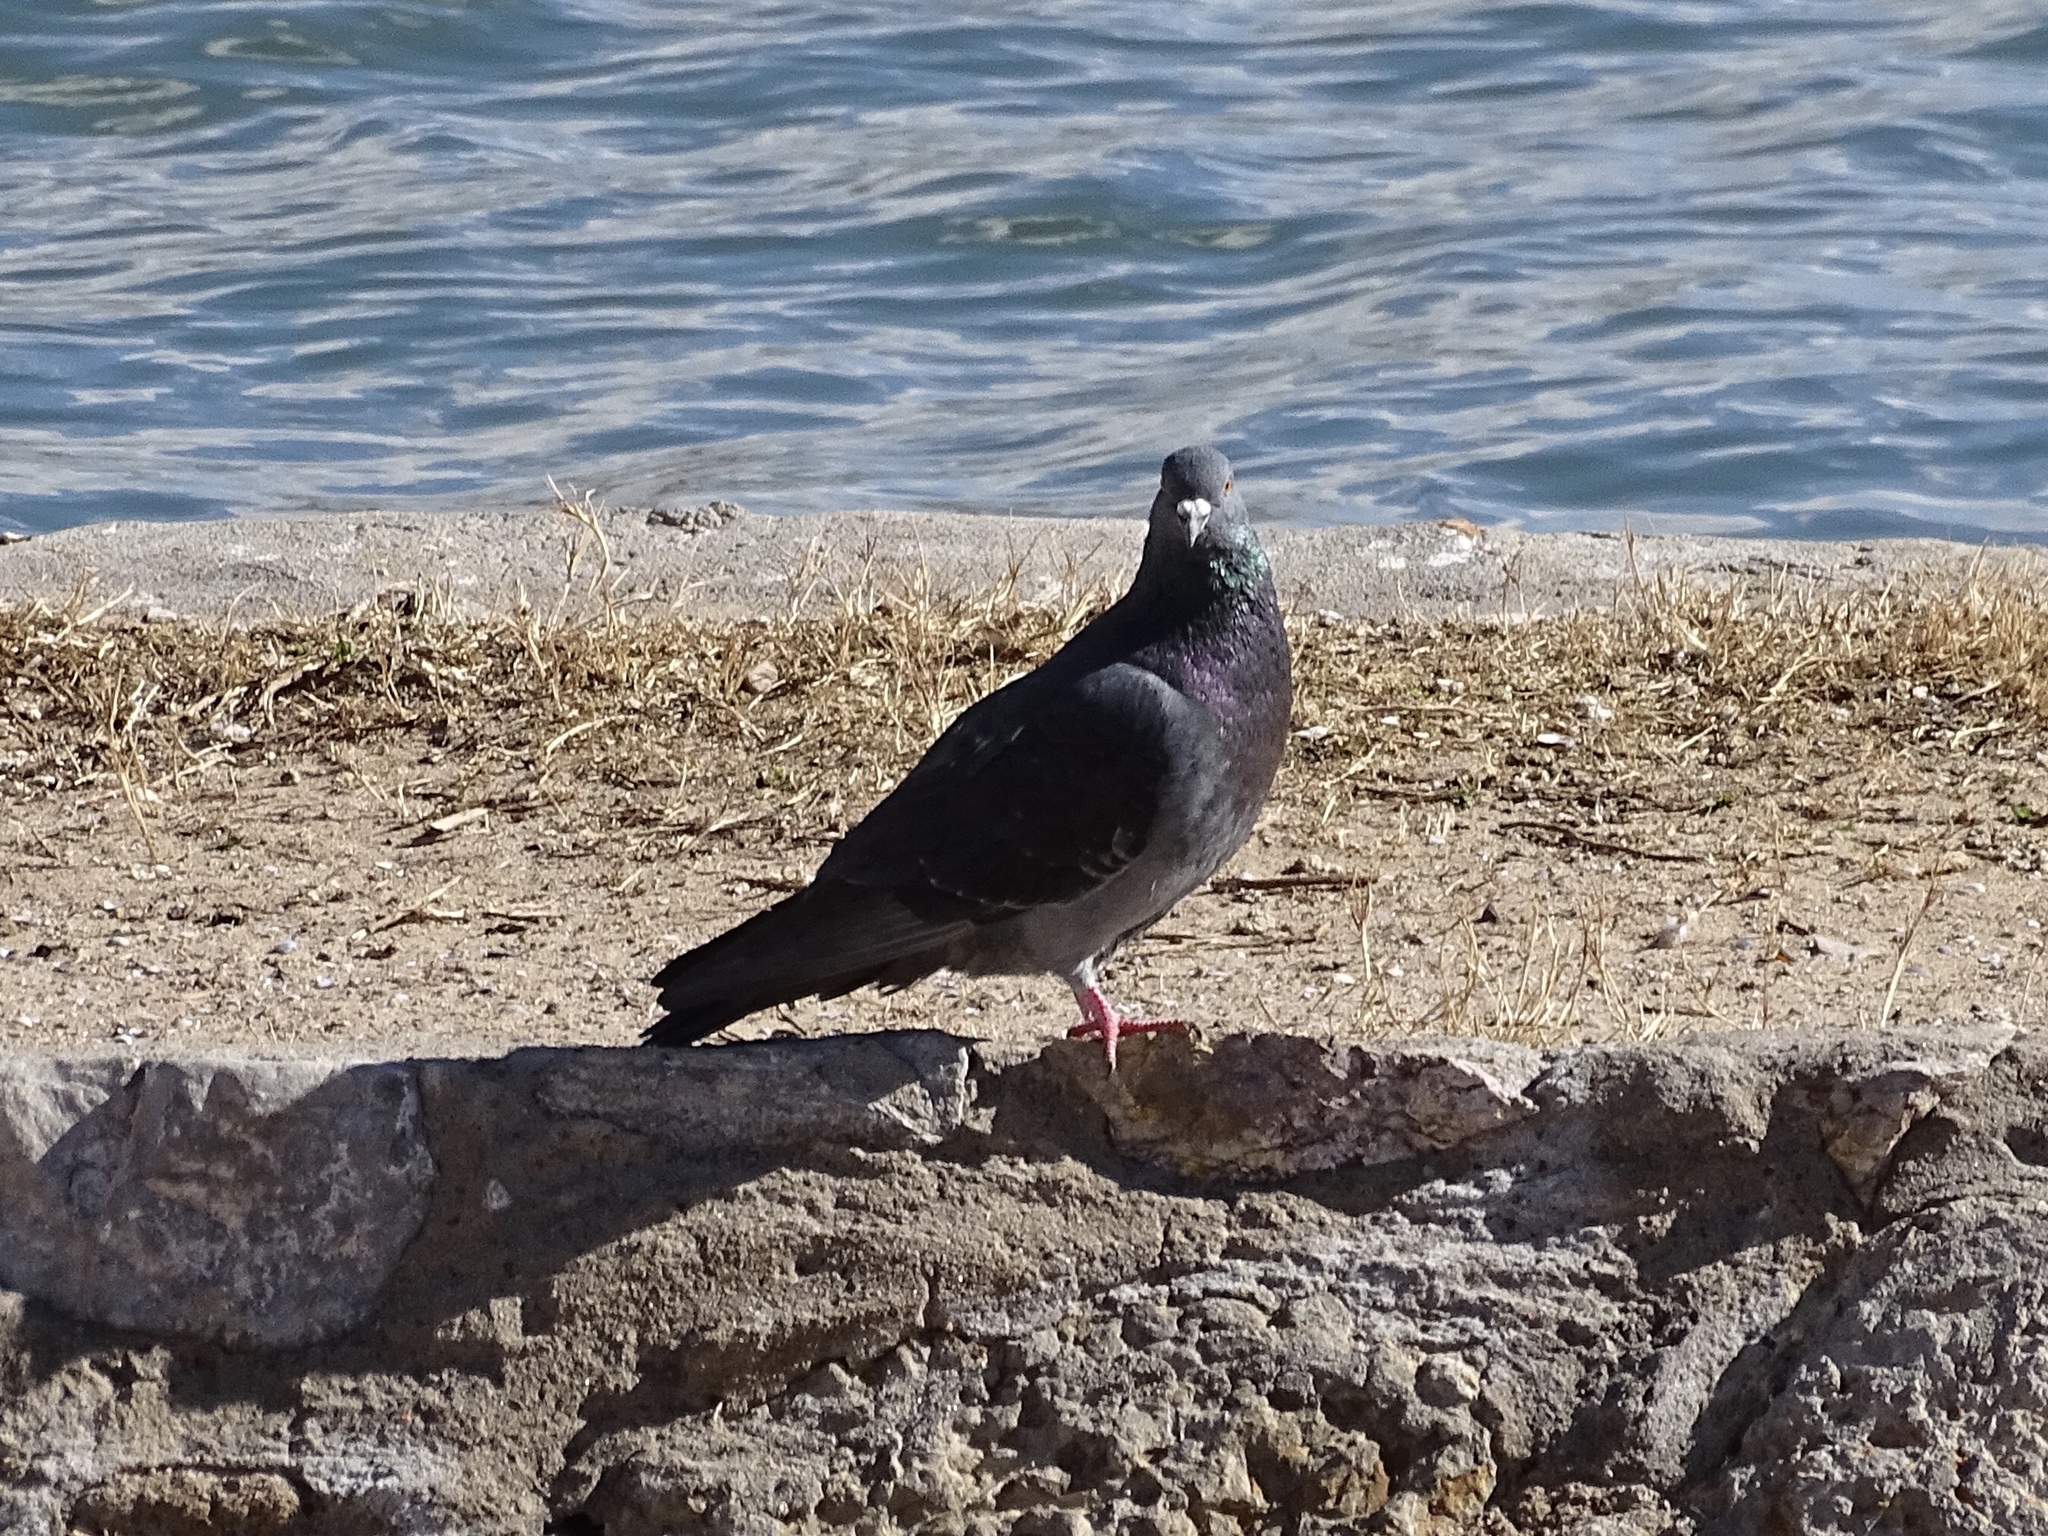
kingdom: Animalia
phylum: Chordata
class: Aves
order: Columbiformes
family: Columbidae
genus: Columba
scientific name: Columba livia
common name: Rock pigeon
